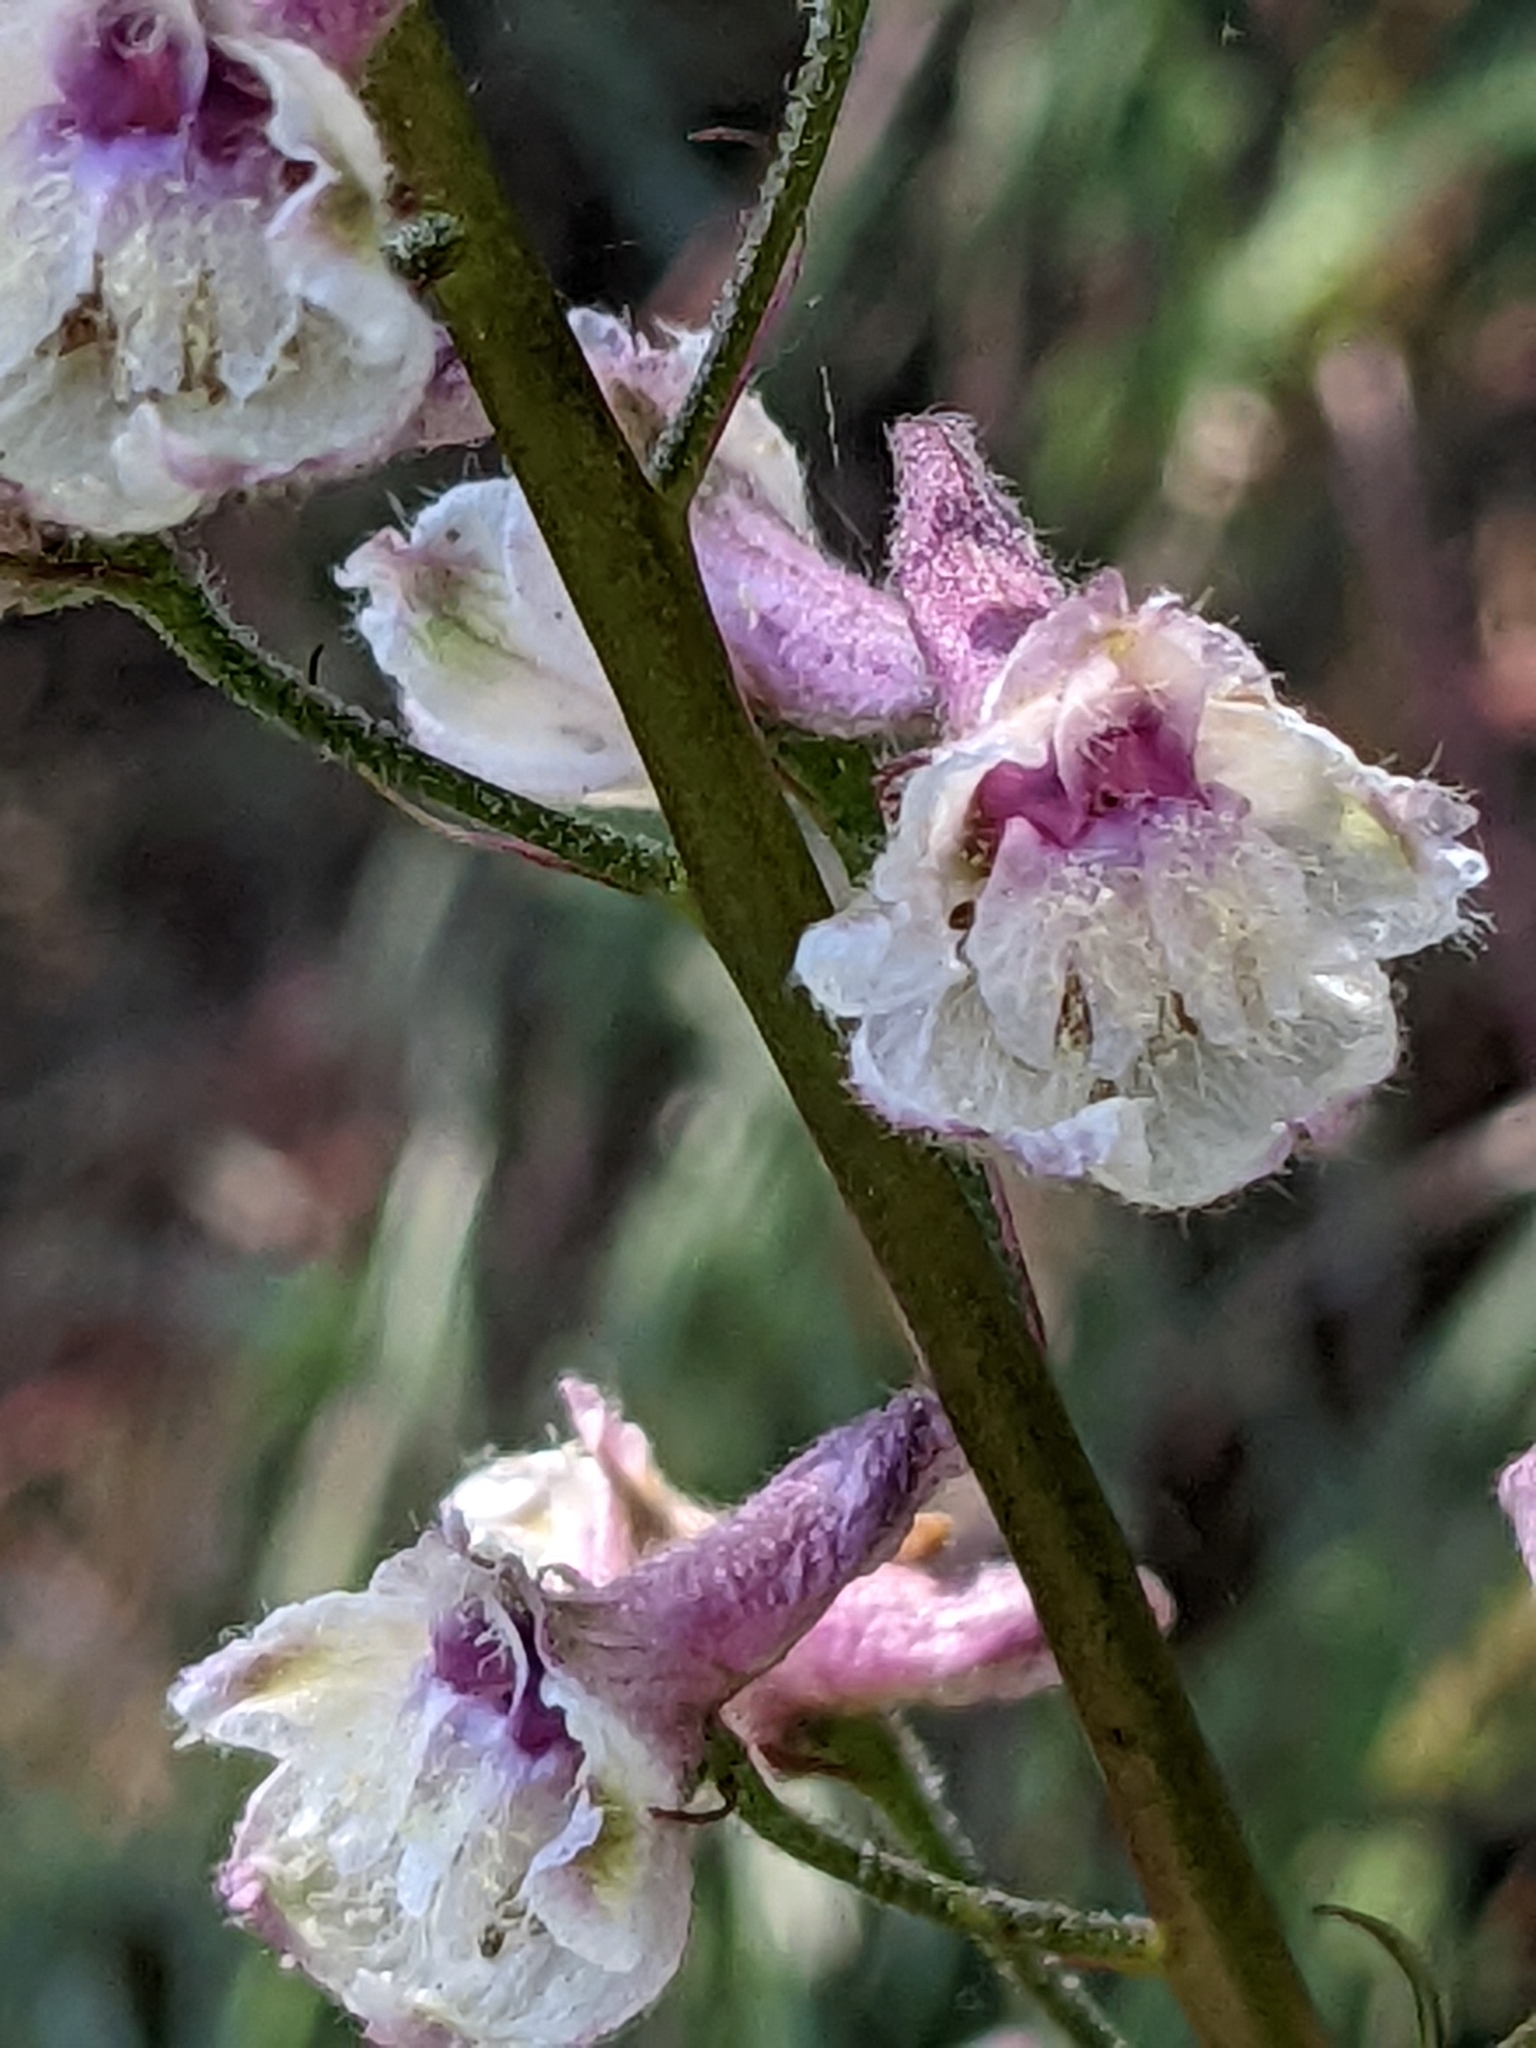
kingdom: Plantae
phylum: Tracheophyta
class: Magnoliopsida
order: Ranunculales
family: Ranunculaceae
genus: Delphinium
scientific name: Delphinium californicum
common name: California larkspur
